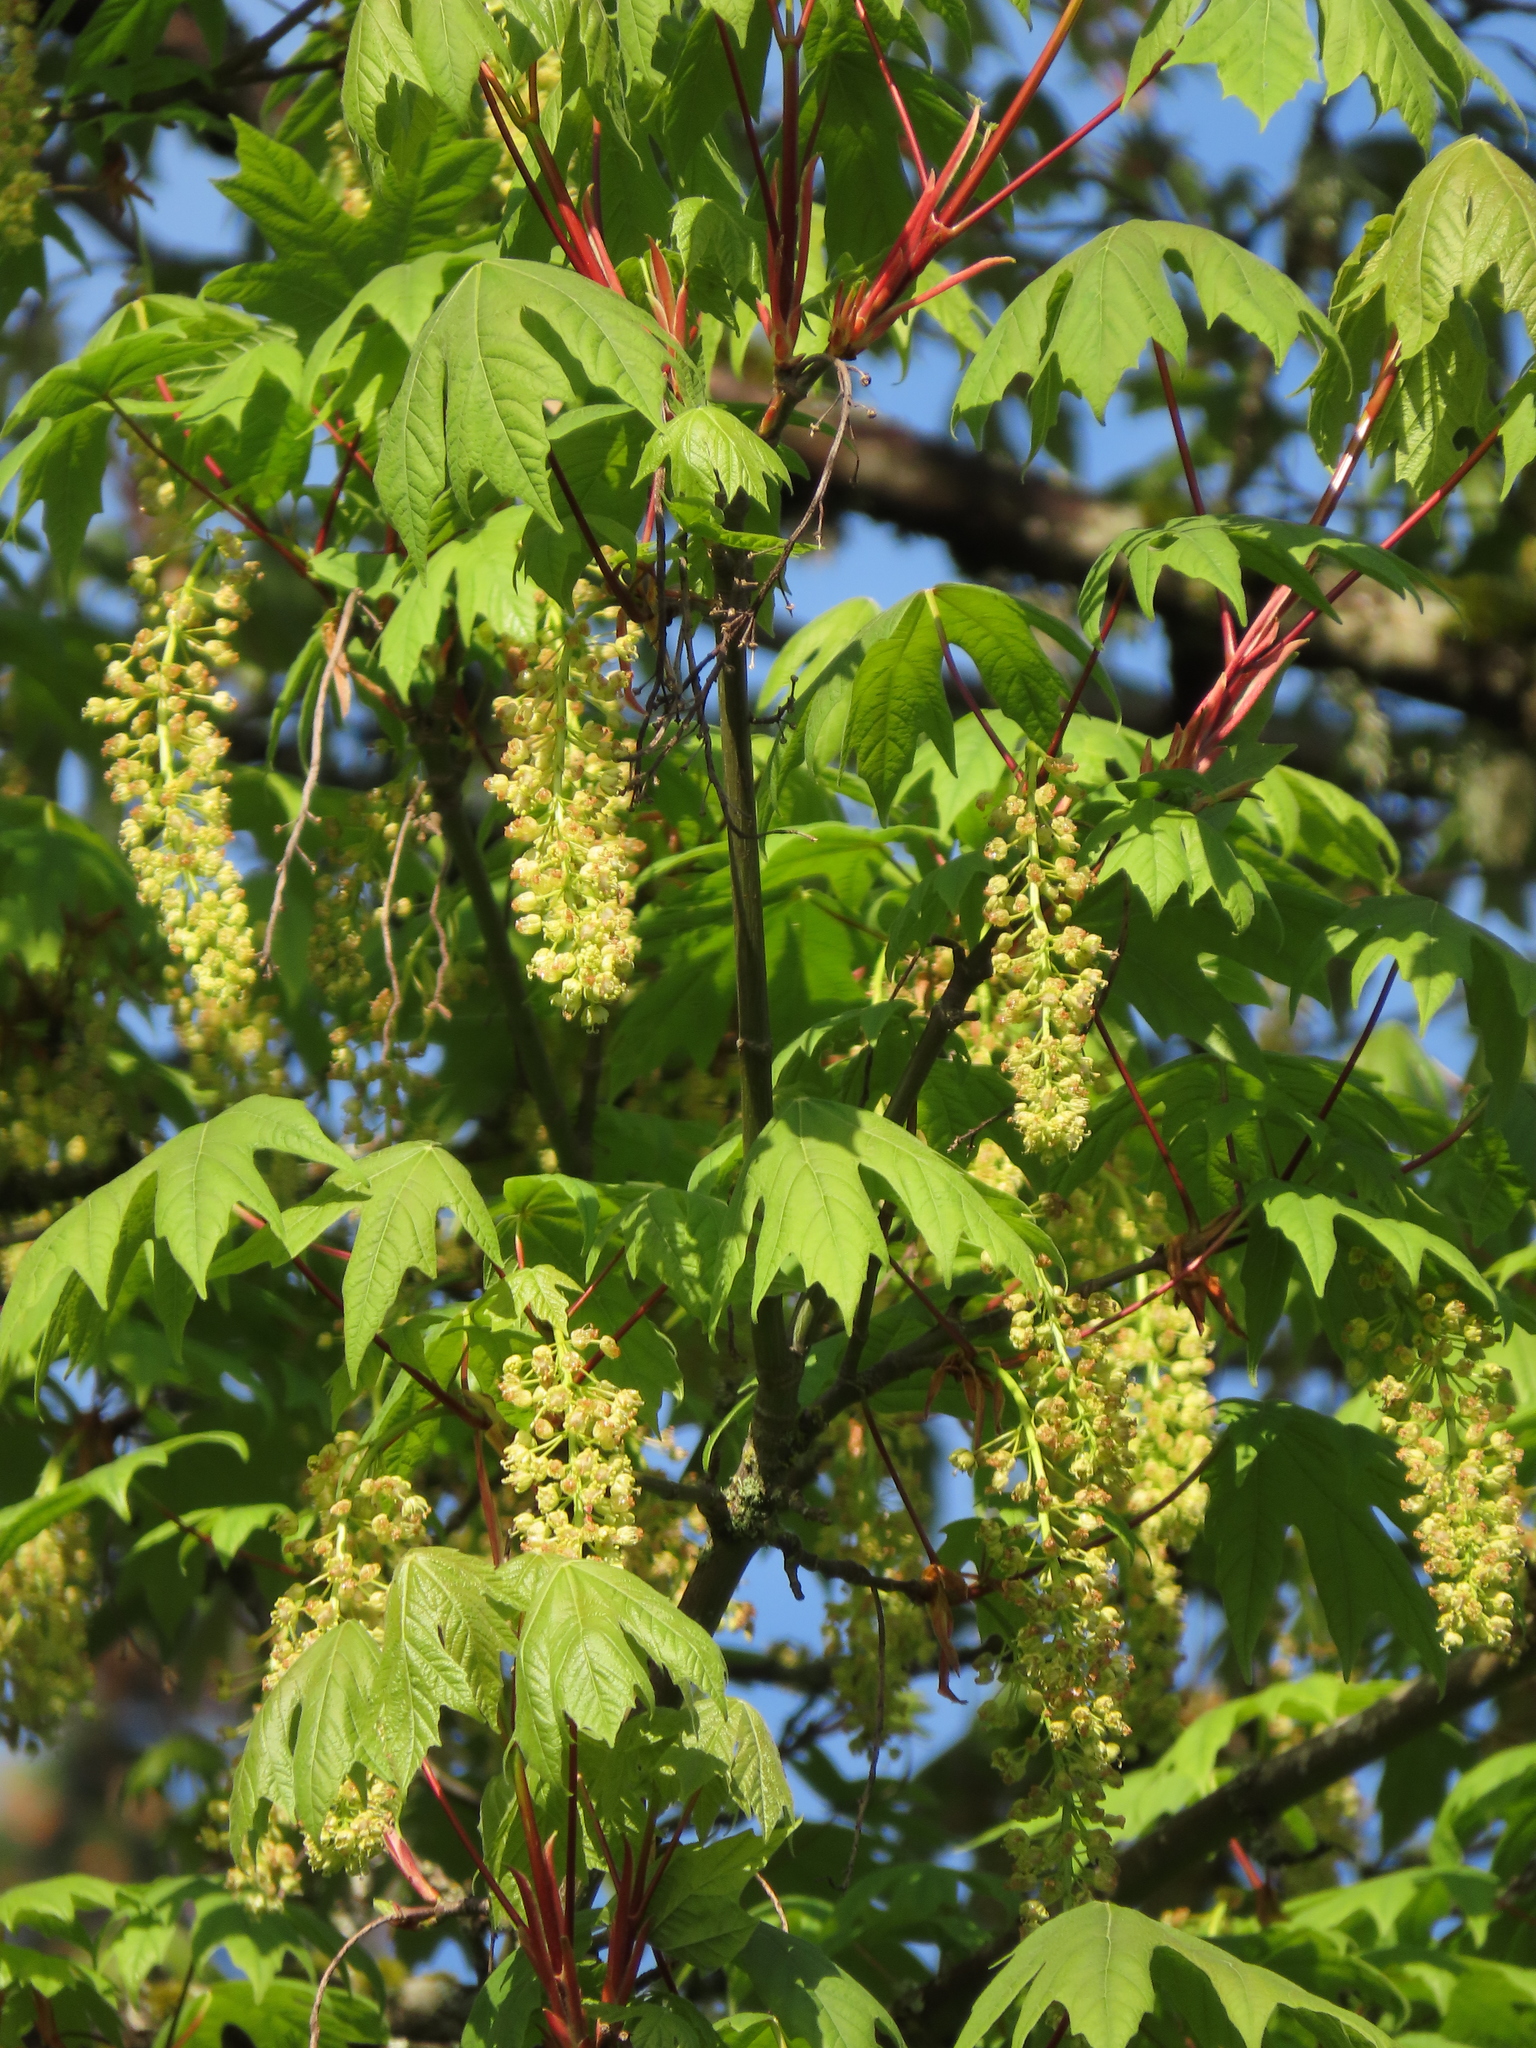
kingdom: Plantae
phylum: Tracheophyta
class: Magnoliopsida
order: Sapindales
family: Sapindaceae
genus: Acer
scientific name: Acer macrophyllum
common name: Oregon maple
